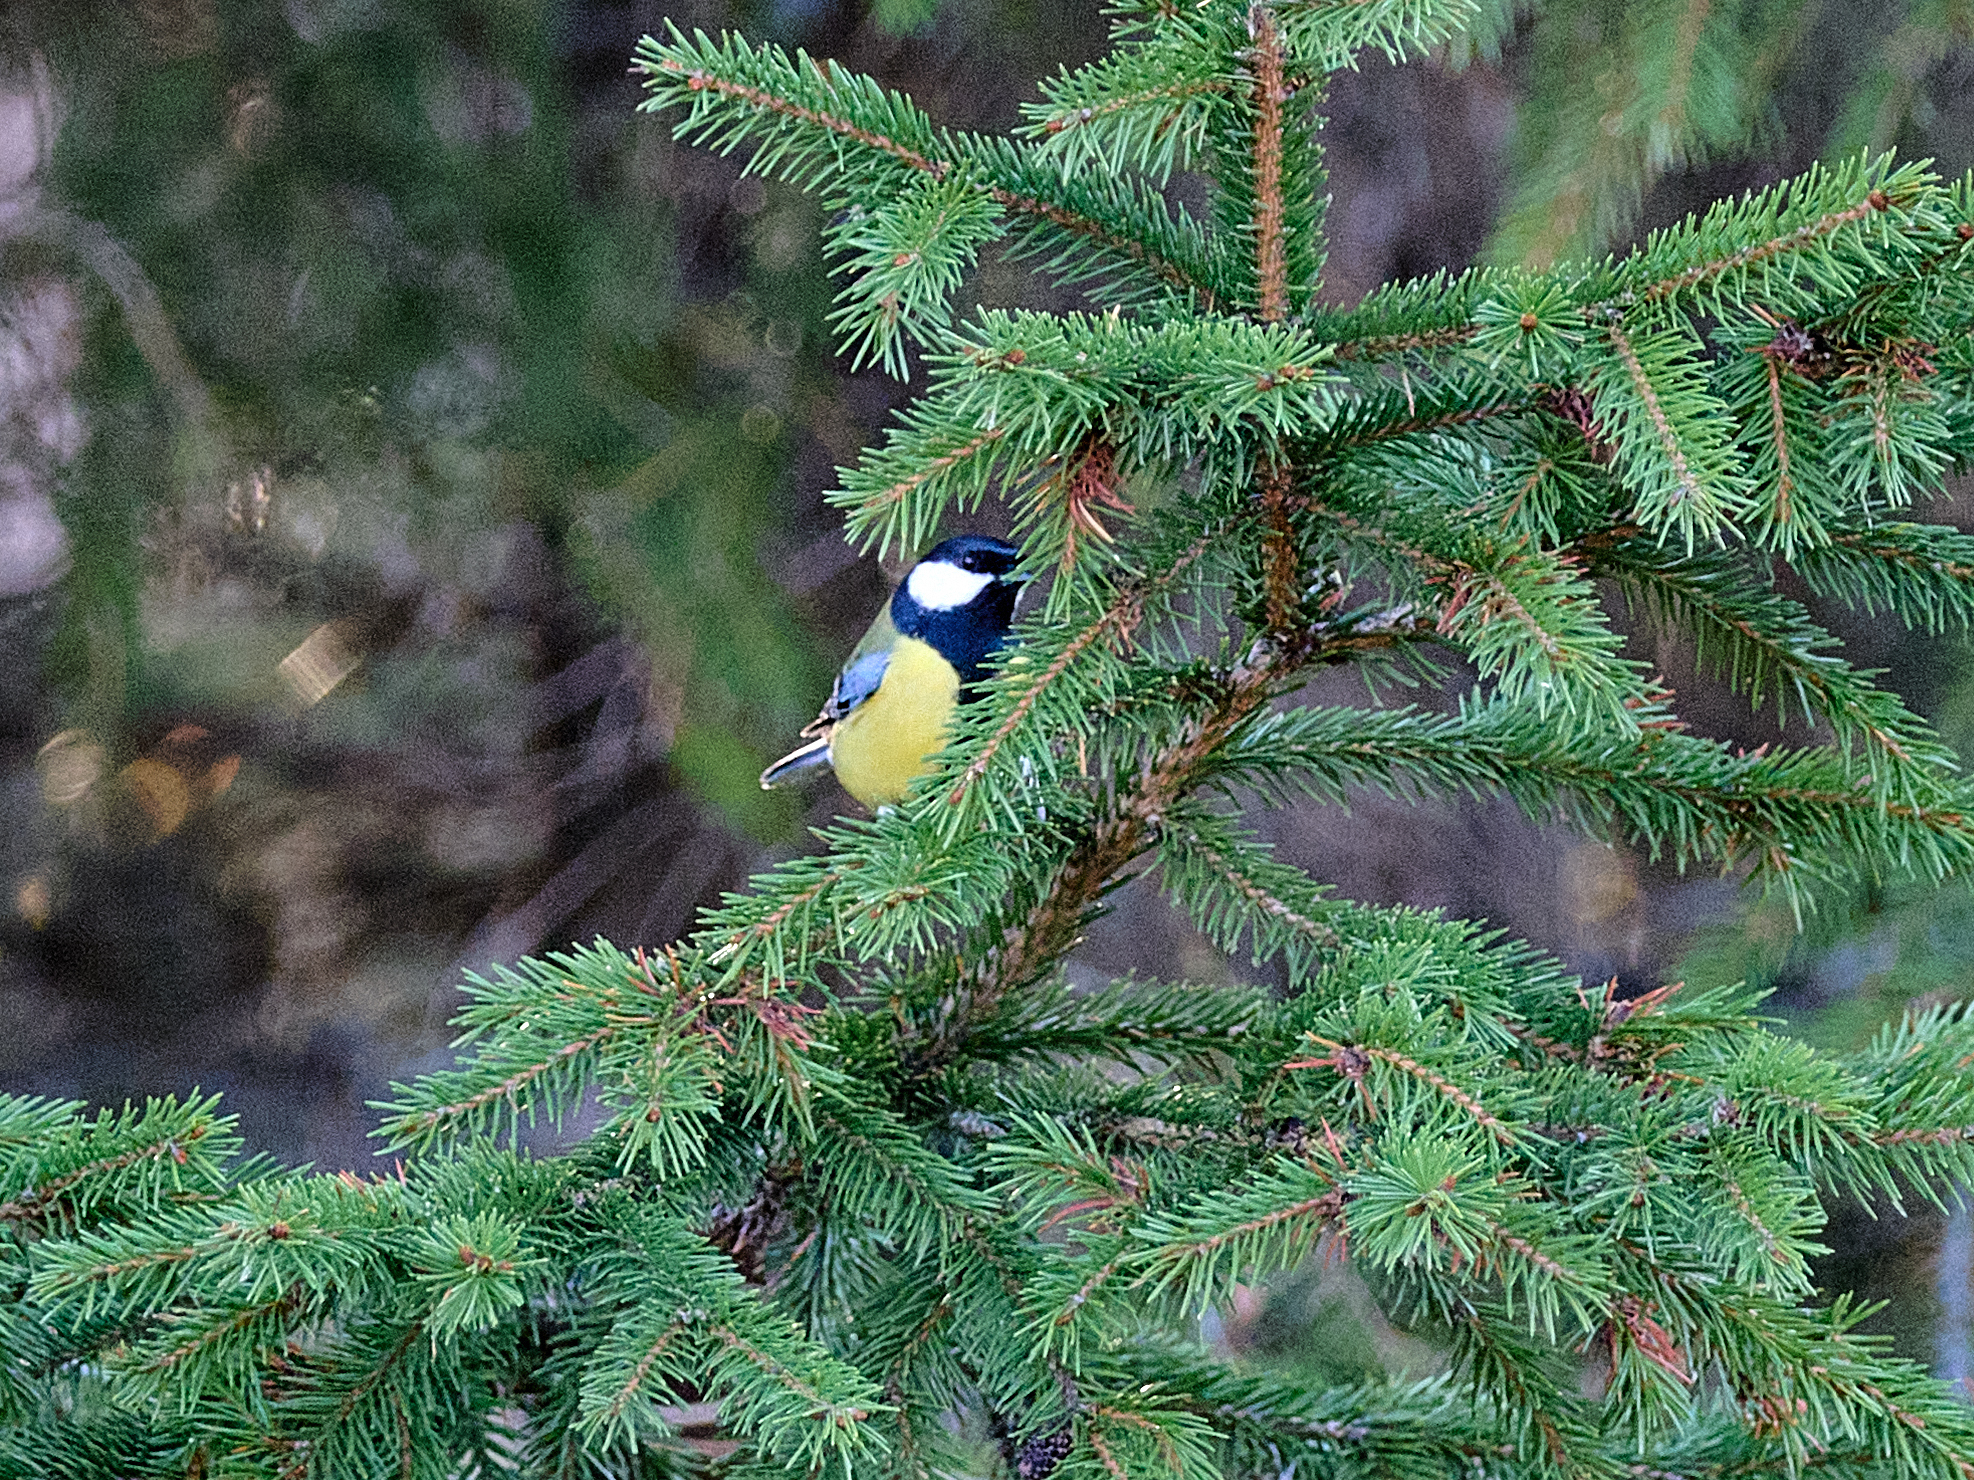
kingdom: Animalia
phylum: Chordata
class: Aves
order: Passeriformes
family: Paridae
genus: Parus
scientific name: Parus major
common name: Great tit
